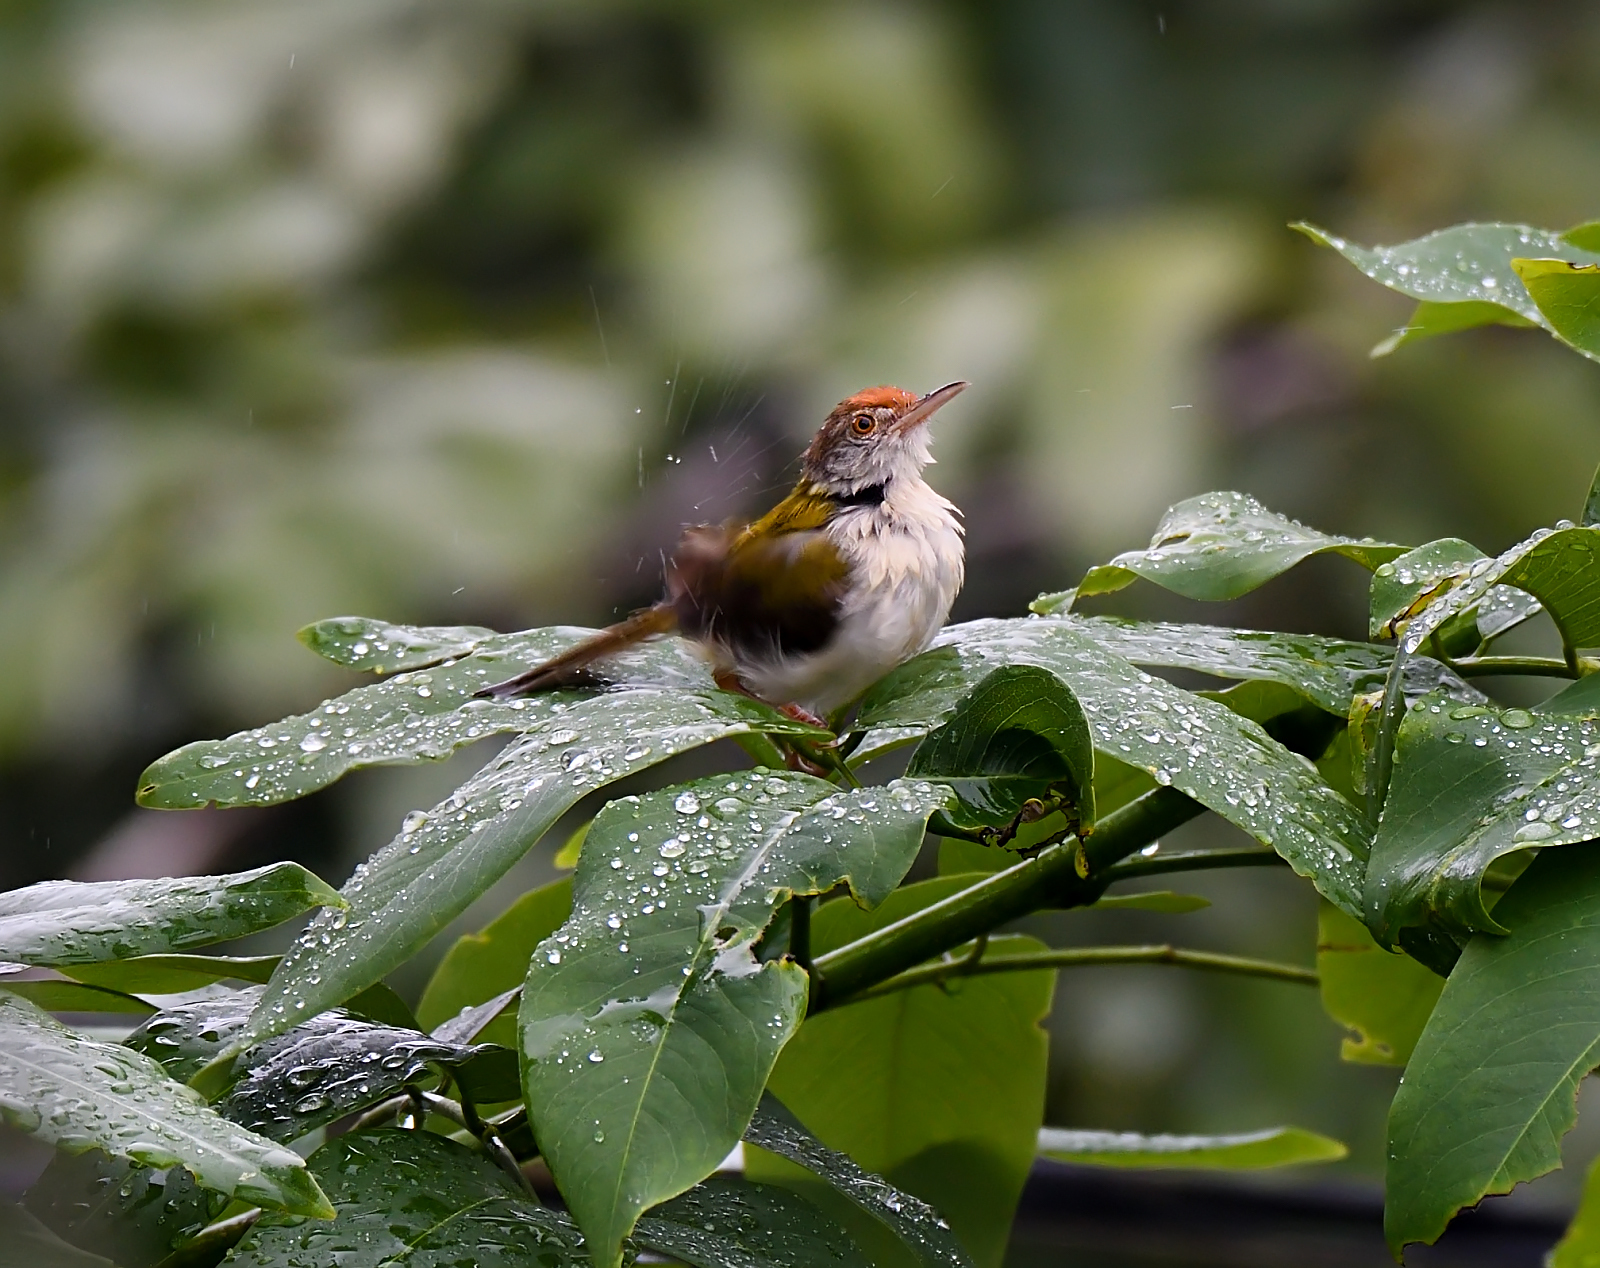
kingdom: Animalia
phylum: Chordata
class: Aves
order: Passeriformes
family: Cisticolidae
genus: Orthotomus
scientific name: Orthotomus sutorius
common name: Common tailorbird
